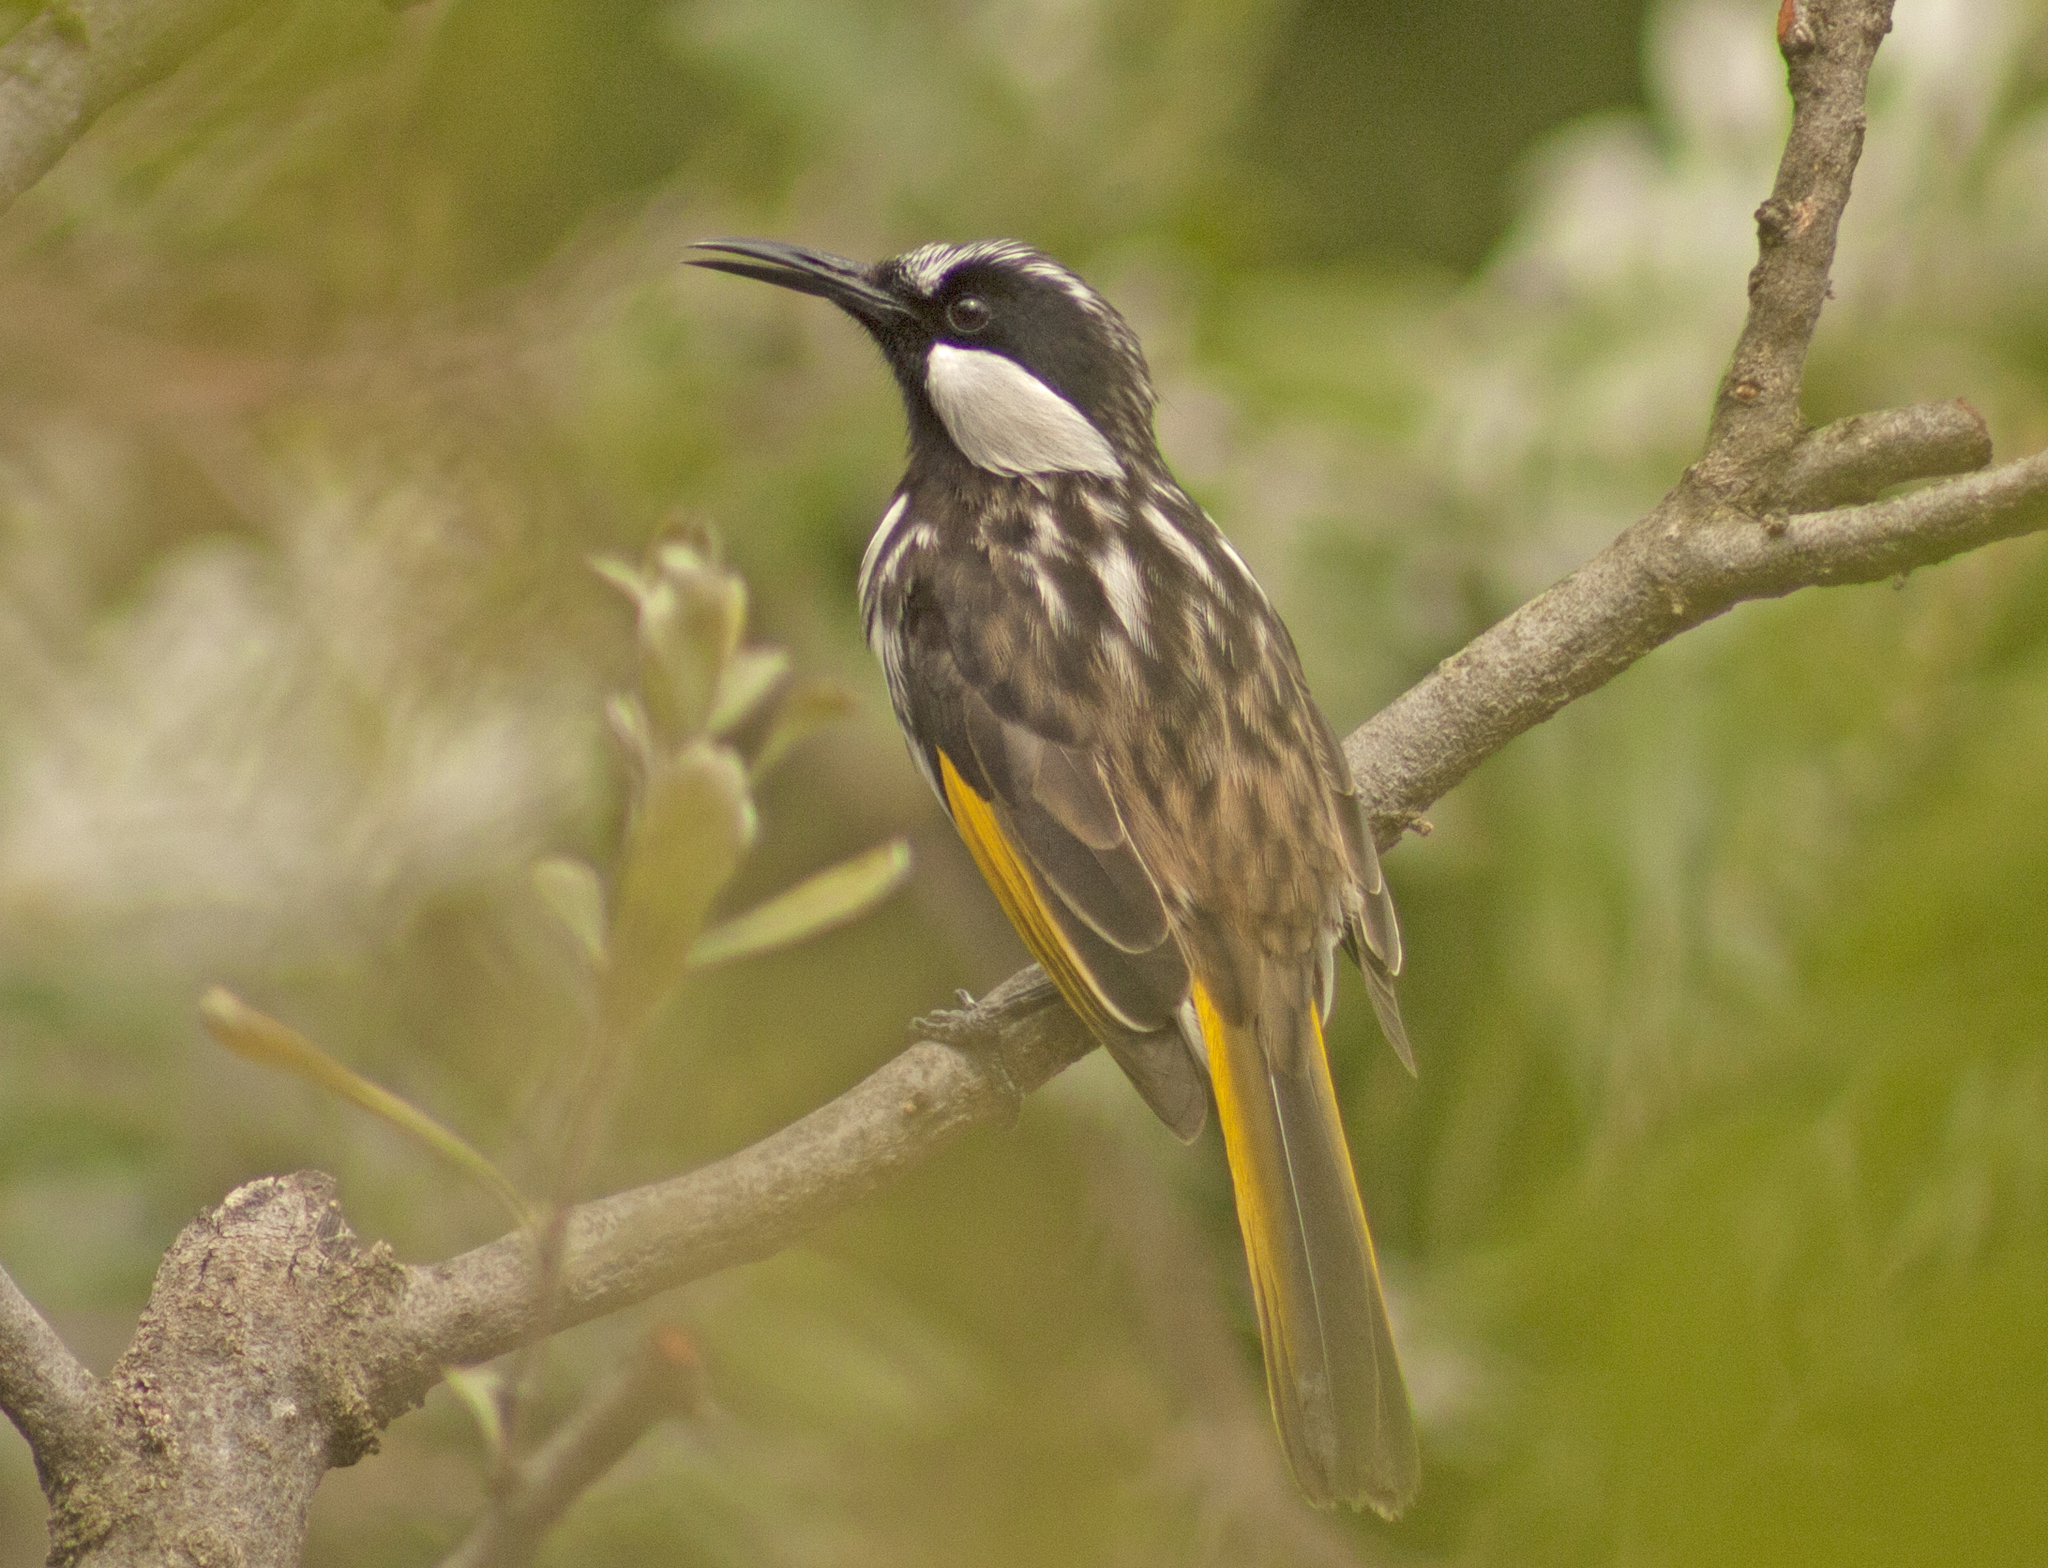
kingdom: Animalia
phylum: Chordata
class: Aves
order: Passeriformes
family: Meliphagidae
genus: Phylidonyris
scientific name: Phylidonyris niger
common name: White-cheeked honeyeater
